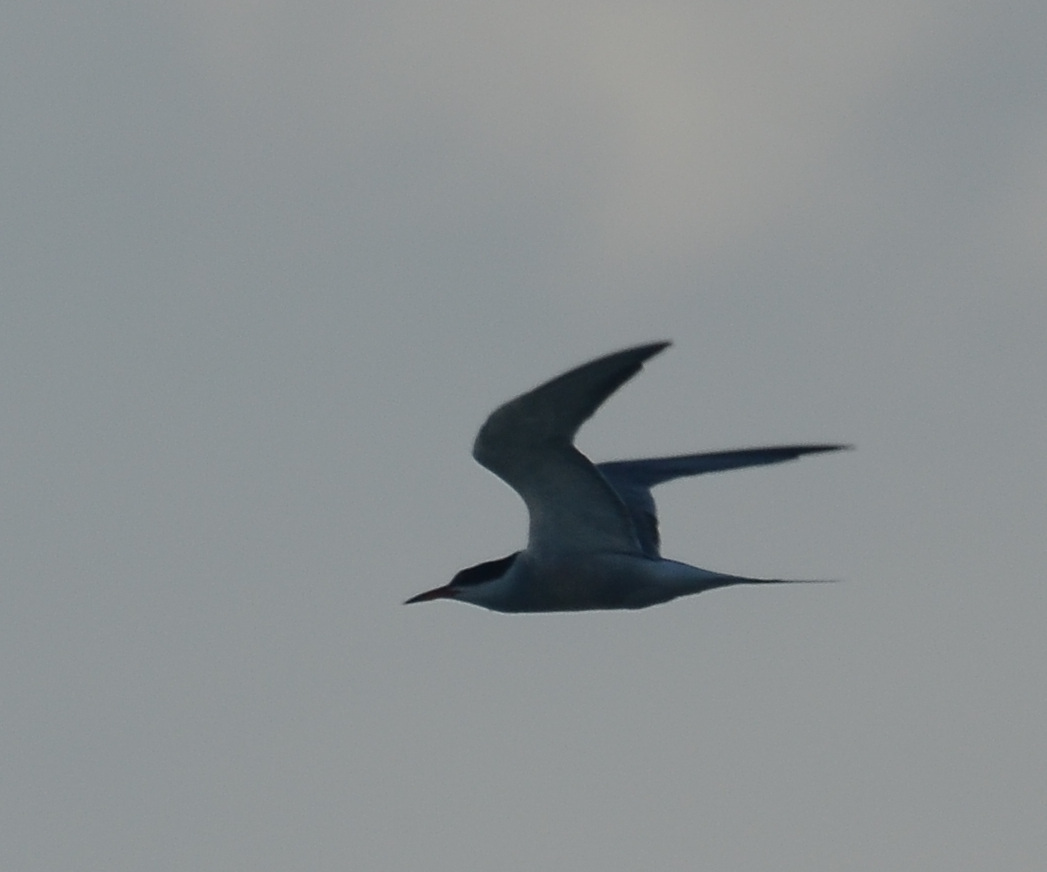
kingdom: Animalia
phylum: Chordata
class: Aves
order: Charadriiformes
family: Laridae
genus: Sterna
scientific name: Sterna hirundo
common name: Common tern
